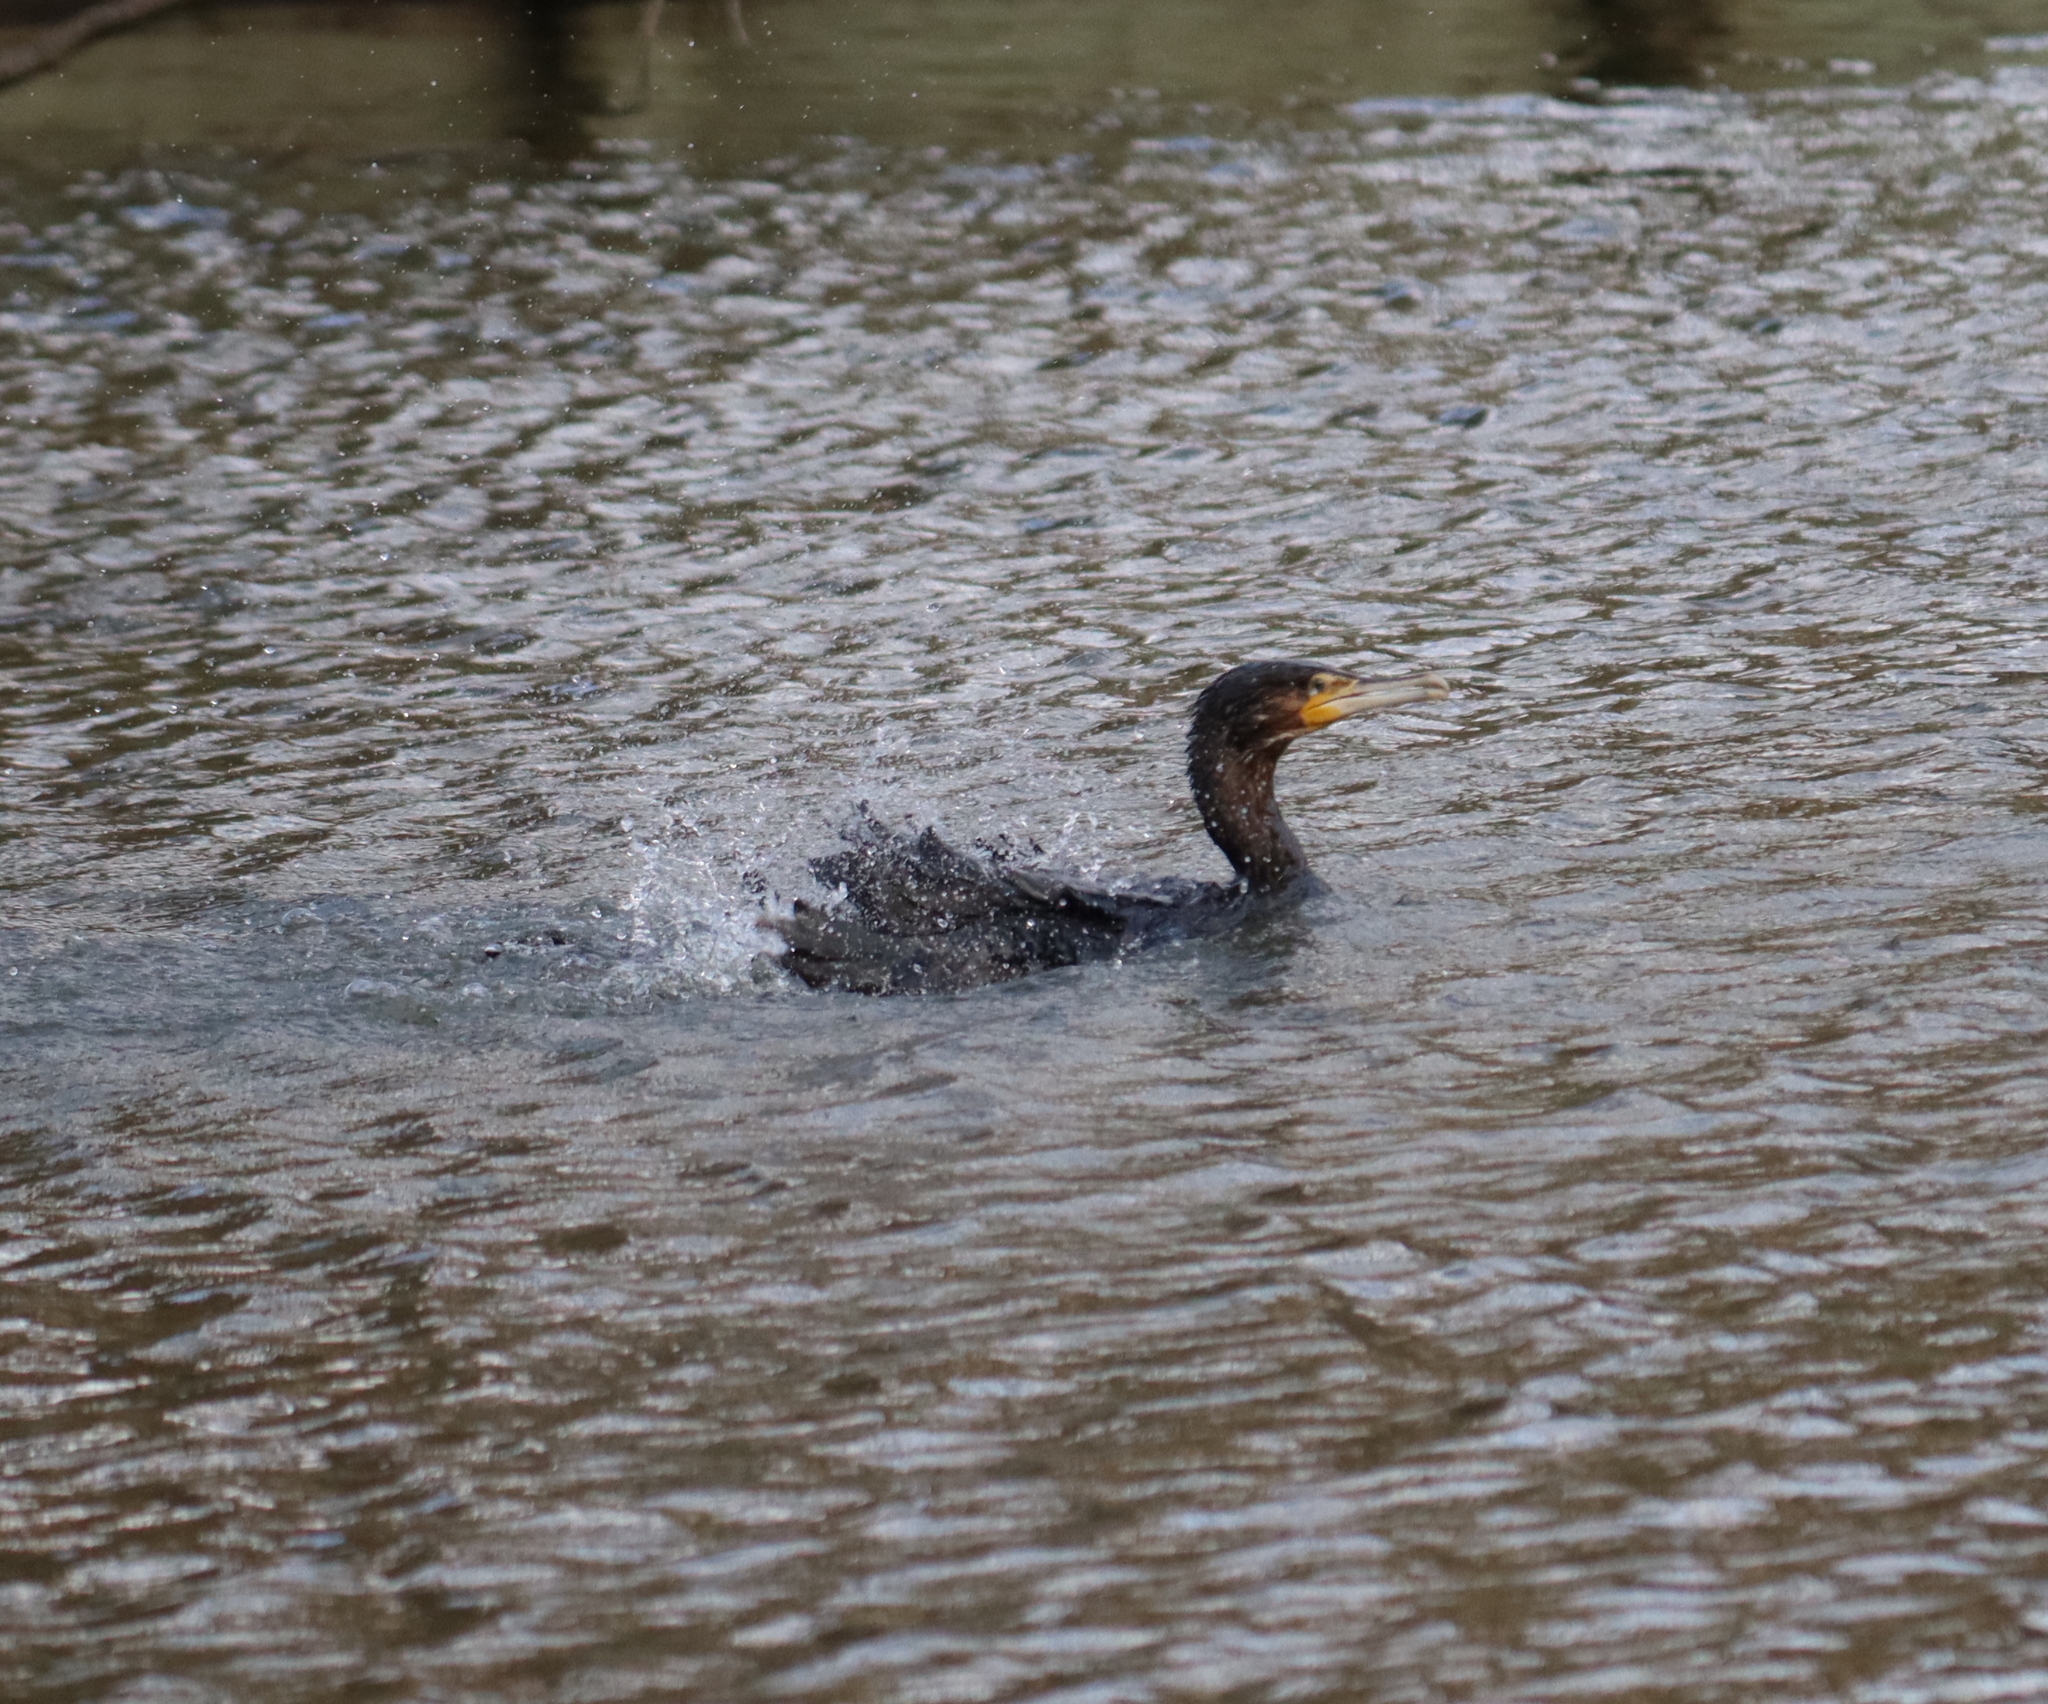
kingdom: Animalia
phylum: Chordata
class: Aves
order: Suliformes
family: Phalacrocoracidae
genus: Phalacrocorax
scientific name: Phalacrocorax carbo
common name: Great cormorant
